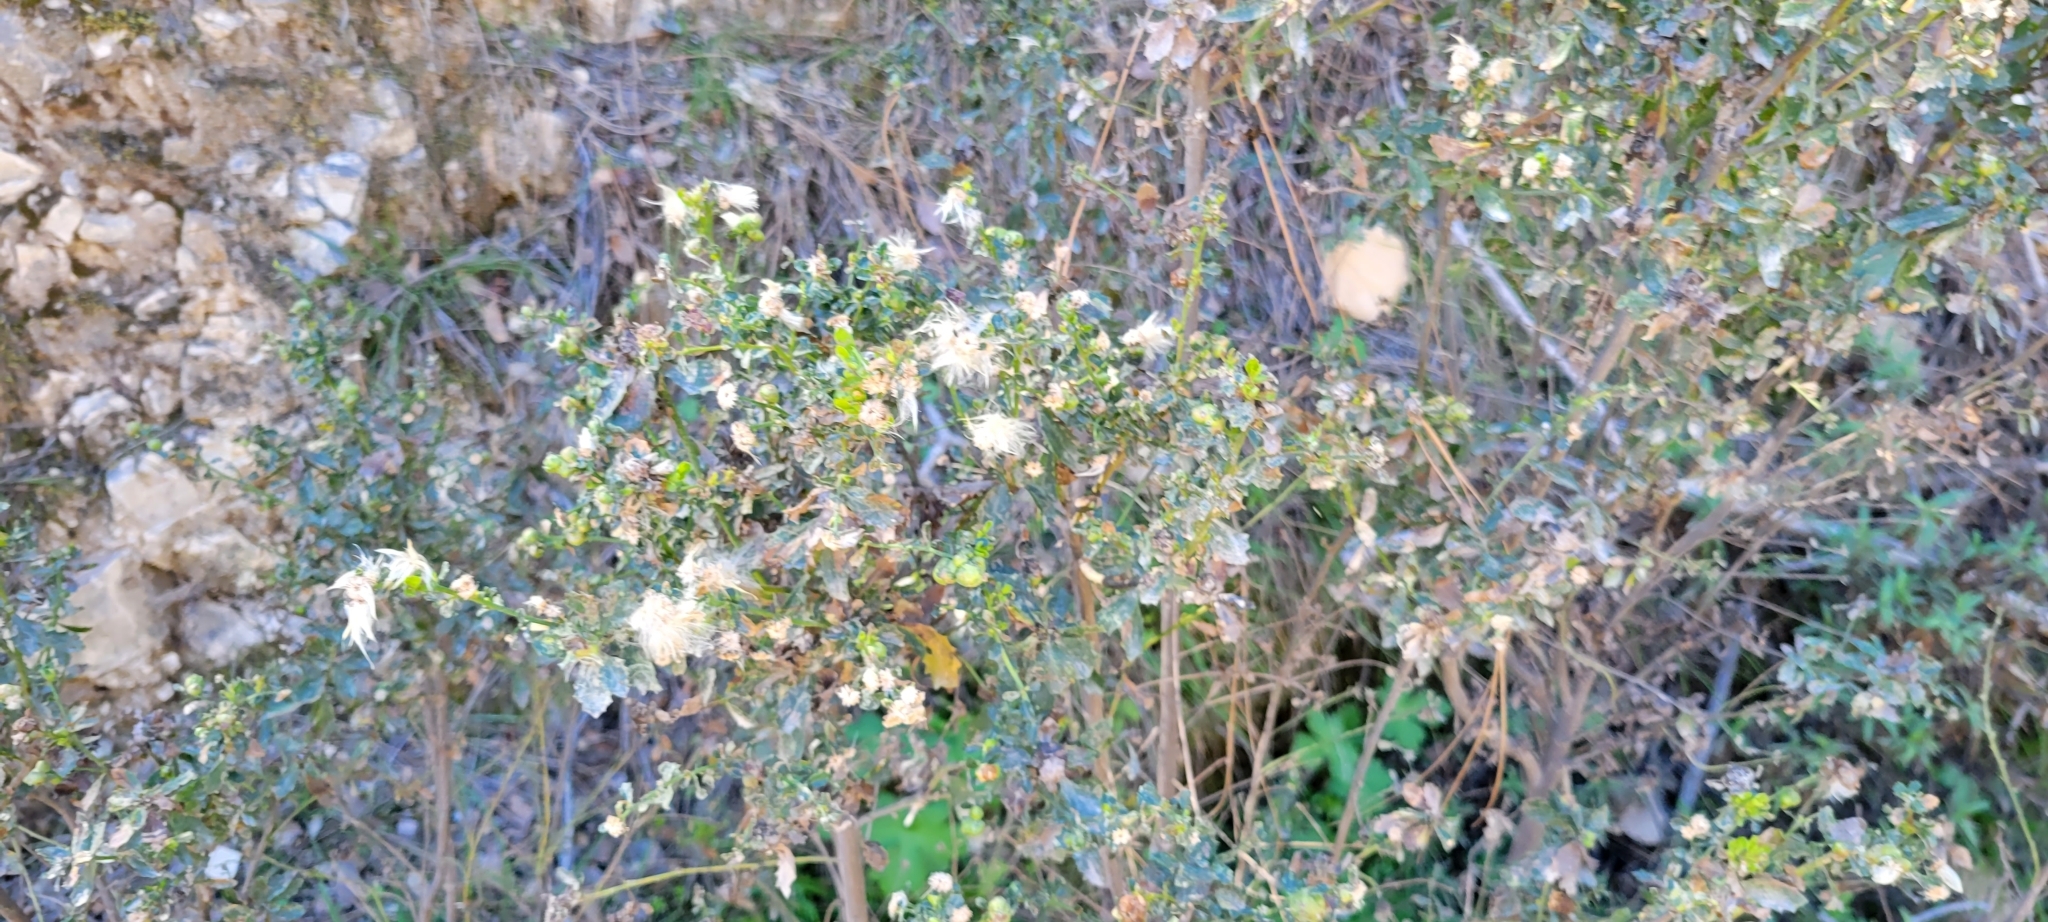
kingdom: Plantae
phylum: Tracheophyta
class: Magnoliopsida
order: Asterales
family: Asteraceae
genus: Baccharis
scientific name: Baccharis pilularis
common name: Coyotebrush
